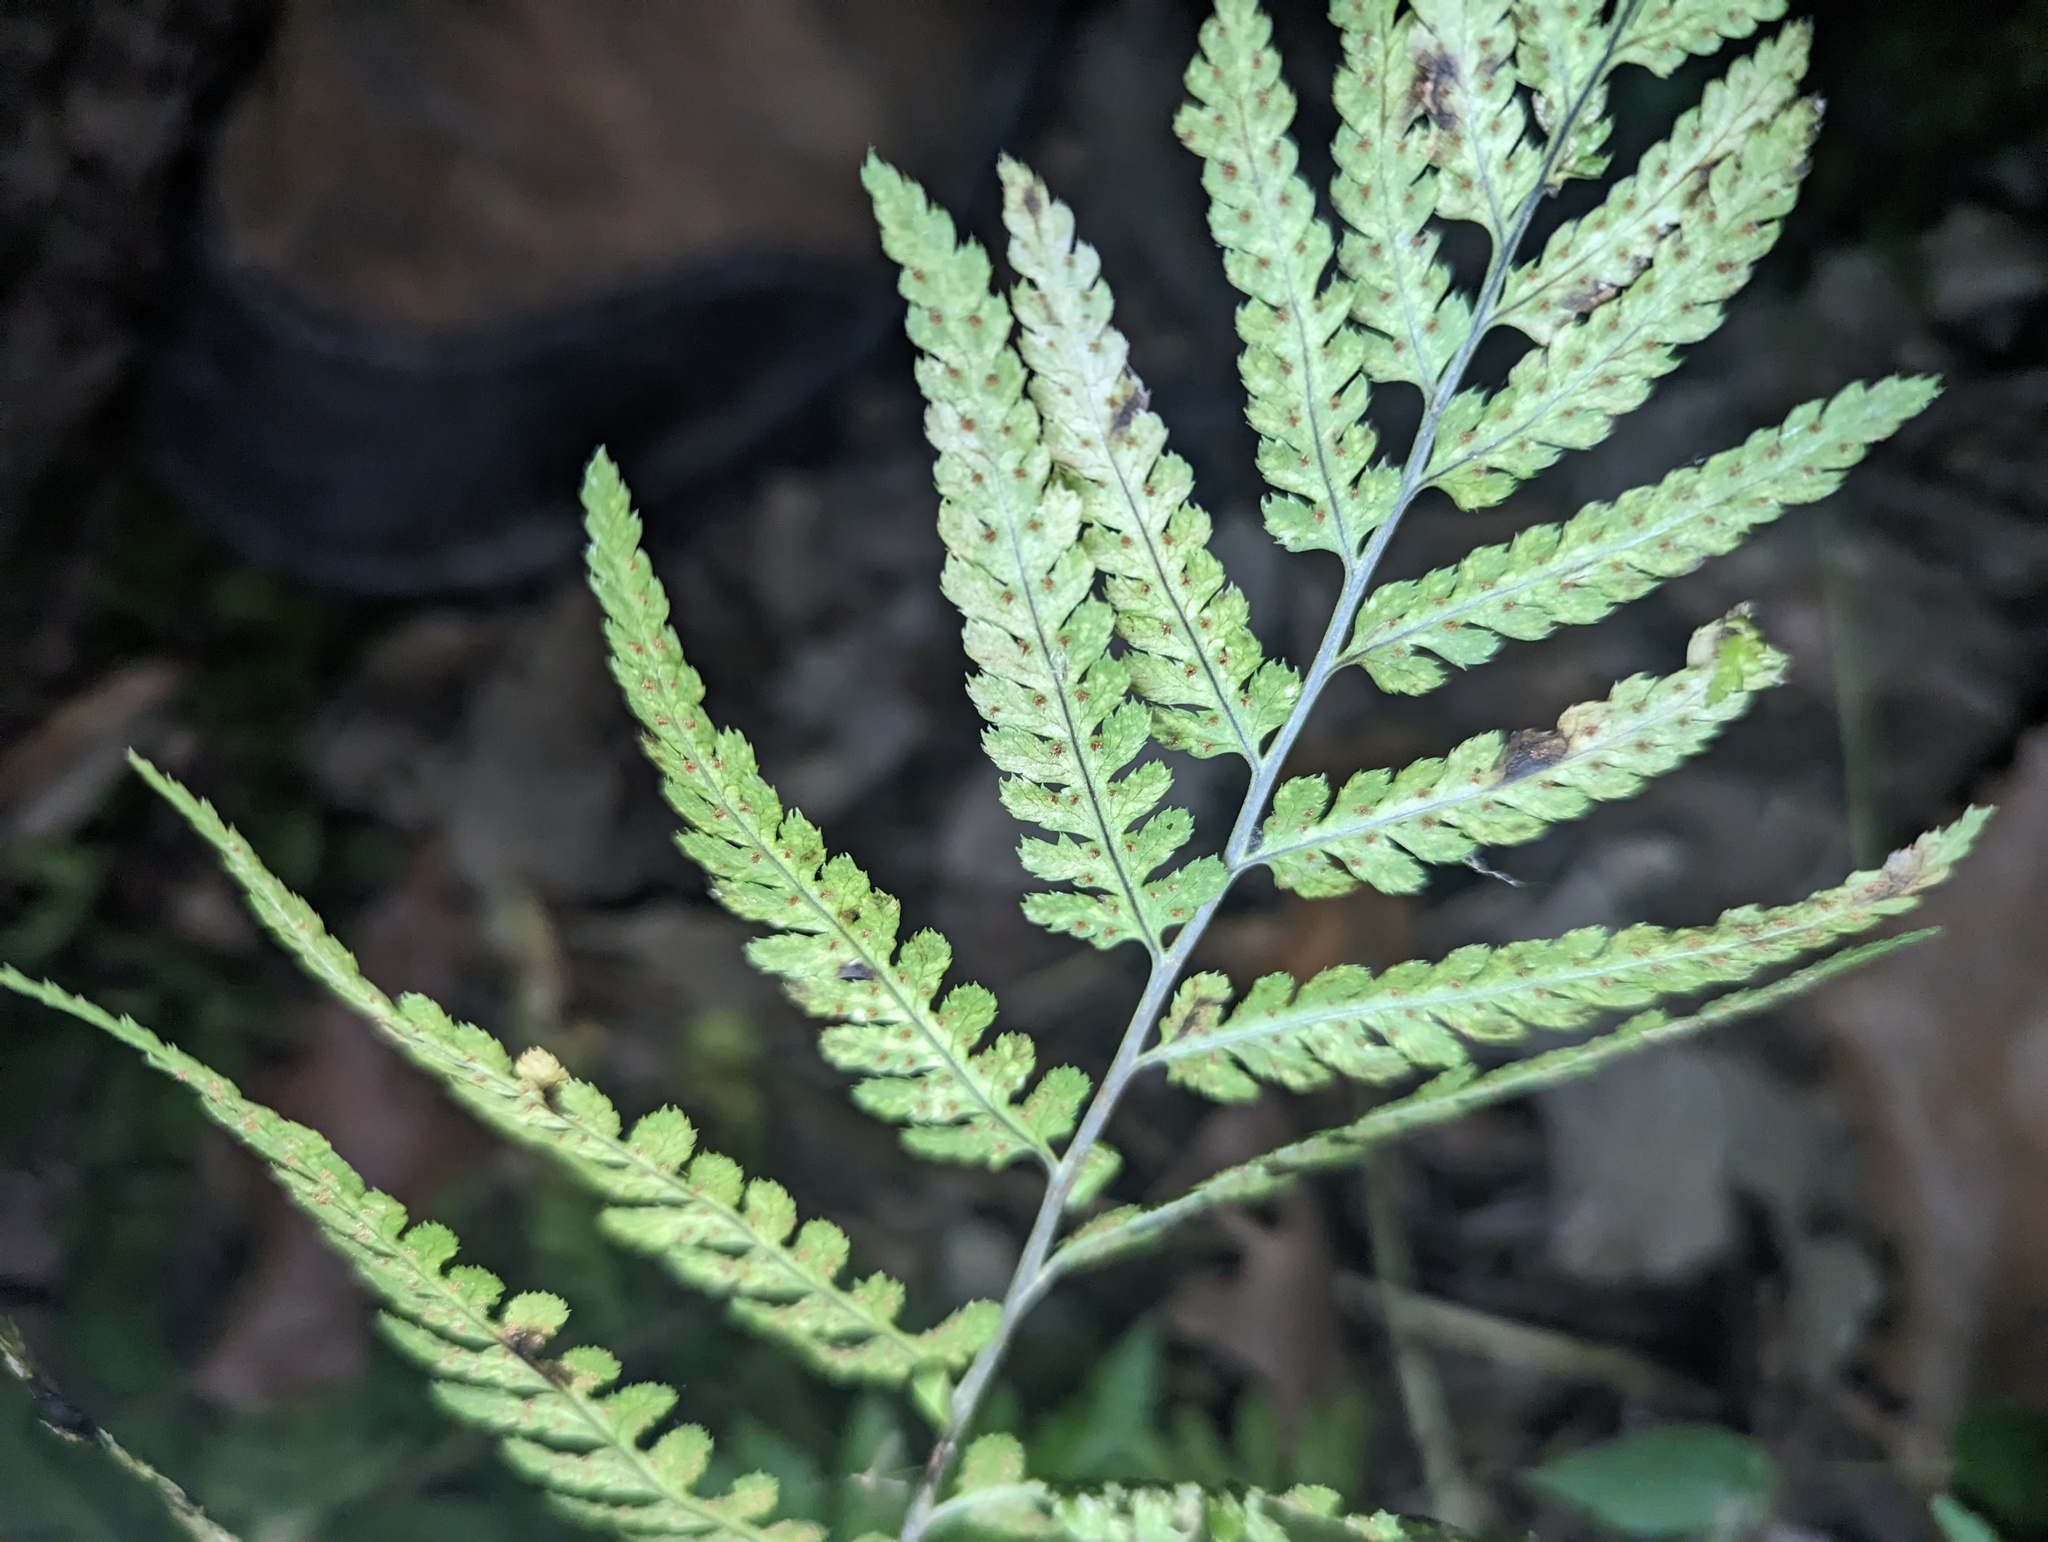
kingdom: Plantae
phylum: Tracheophyta
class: Polypodiopsida
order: Polypodiales
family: Dryopteridaceae
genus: Dryopteris
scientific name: Dryopteris celsa
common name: Log fern
